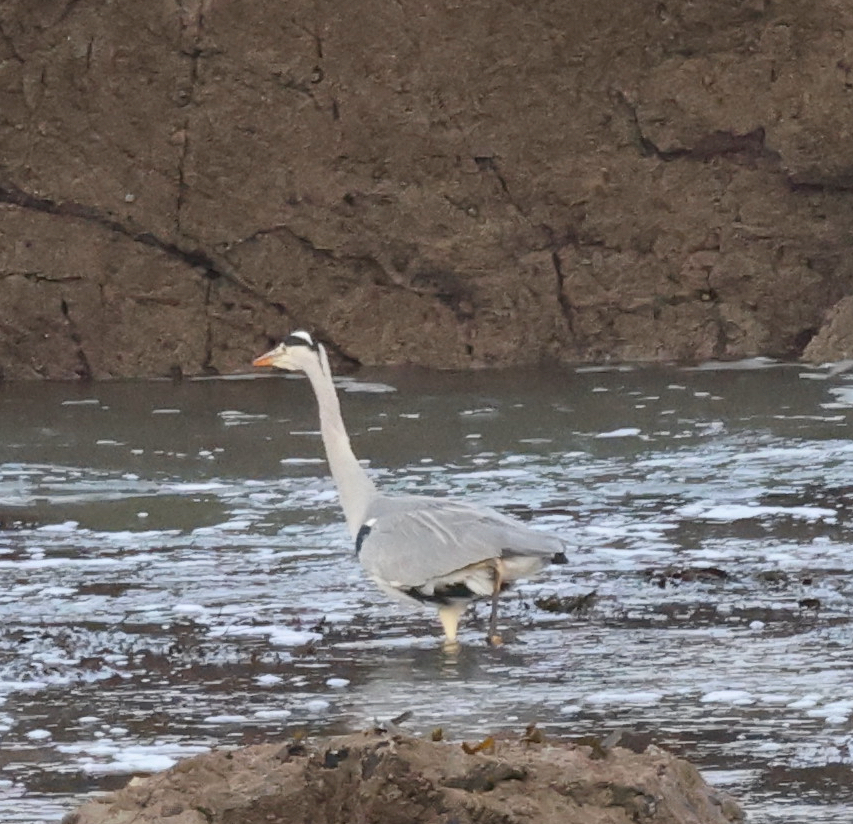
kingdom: Animalia
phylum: Chordata
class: Aves
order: Pelecaniformes
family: Ardeidae
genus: Ardea
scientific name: Ardea cinerea
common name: Grey heron
